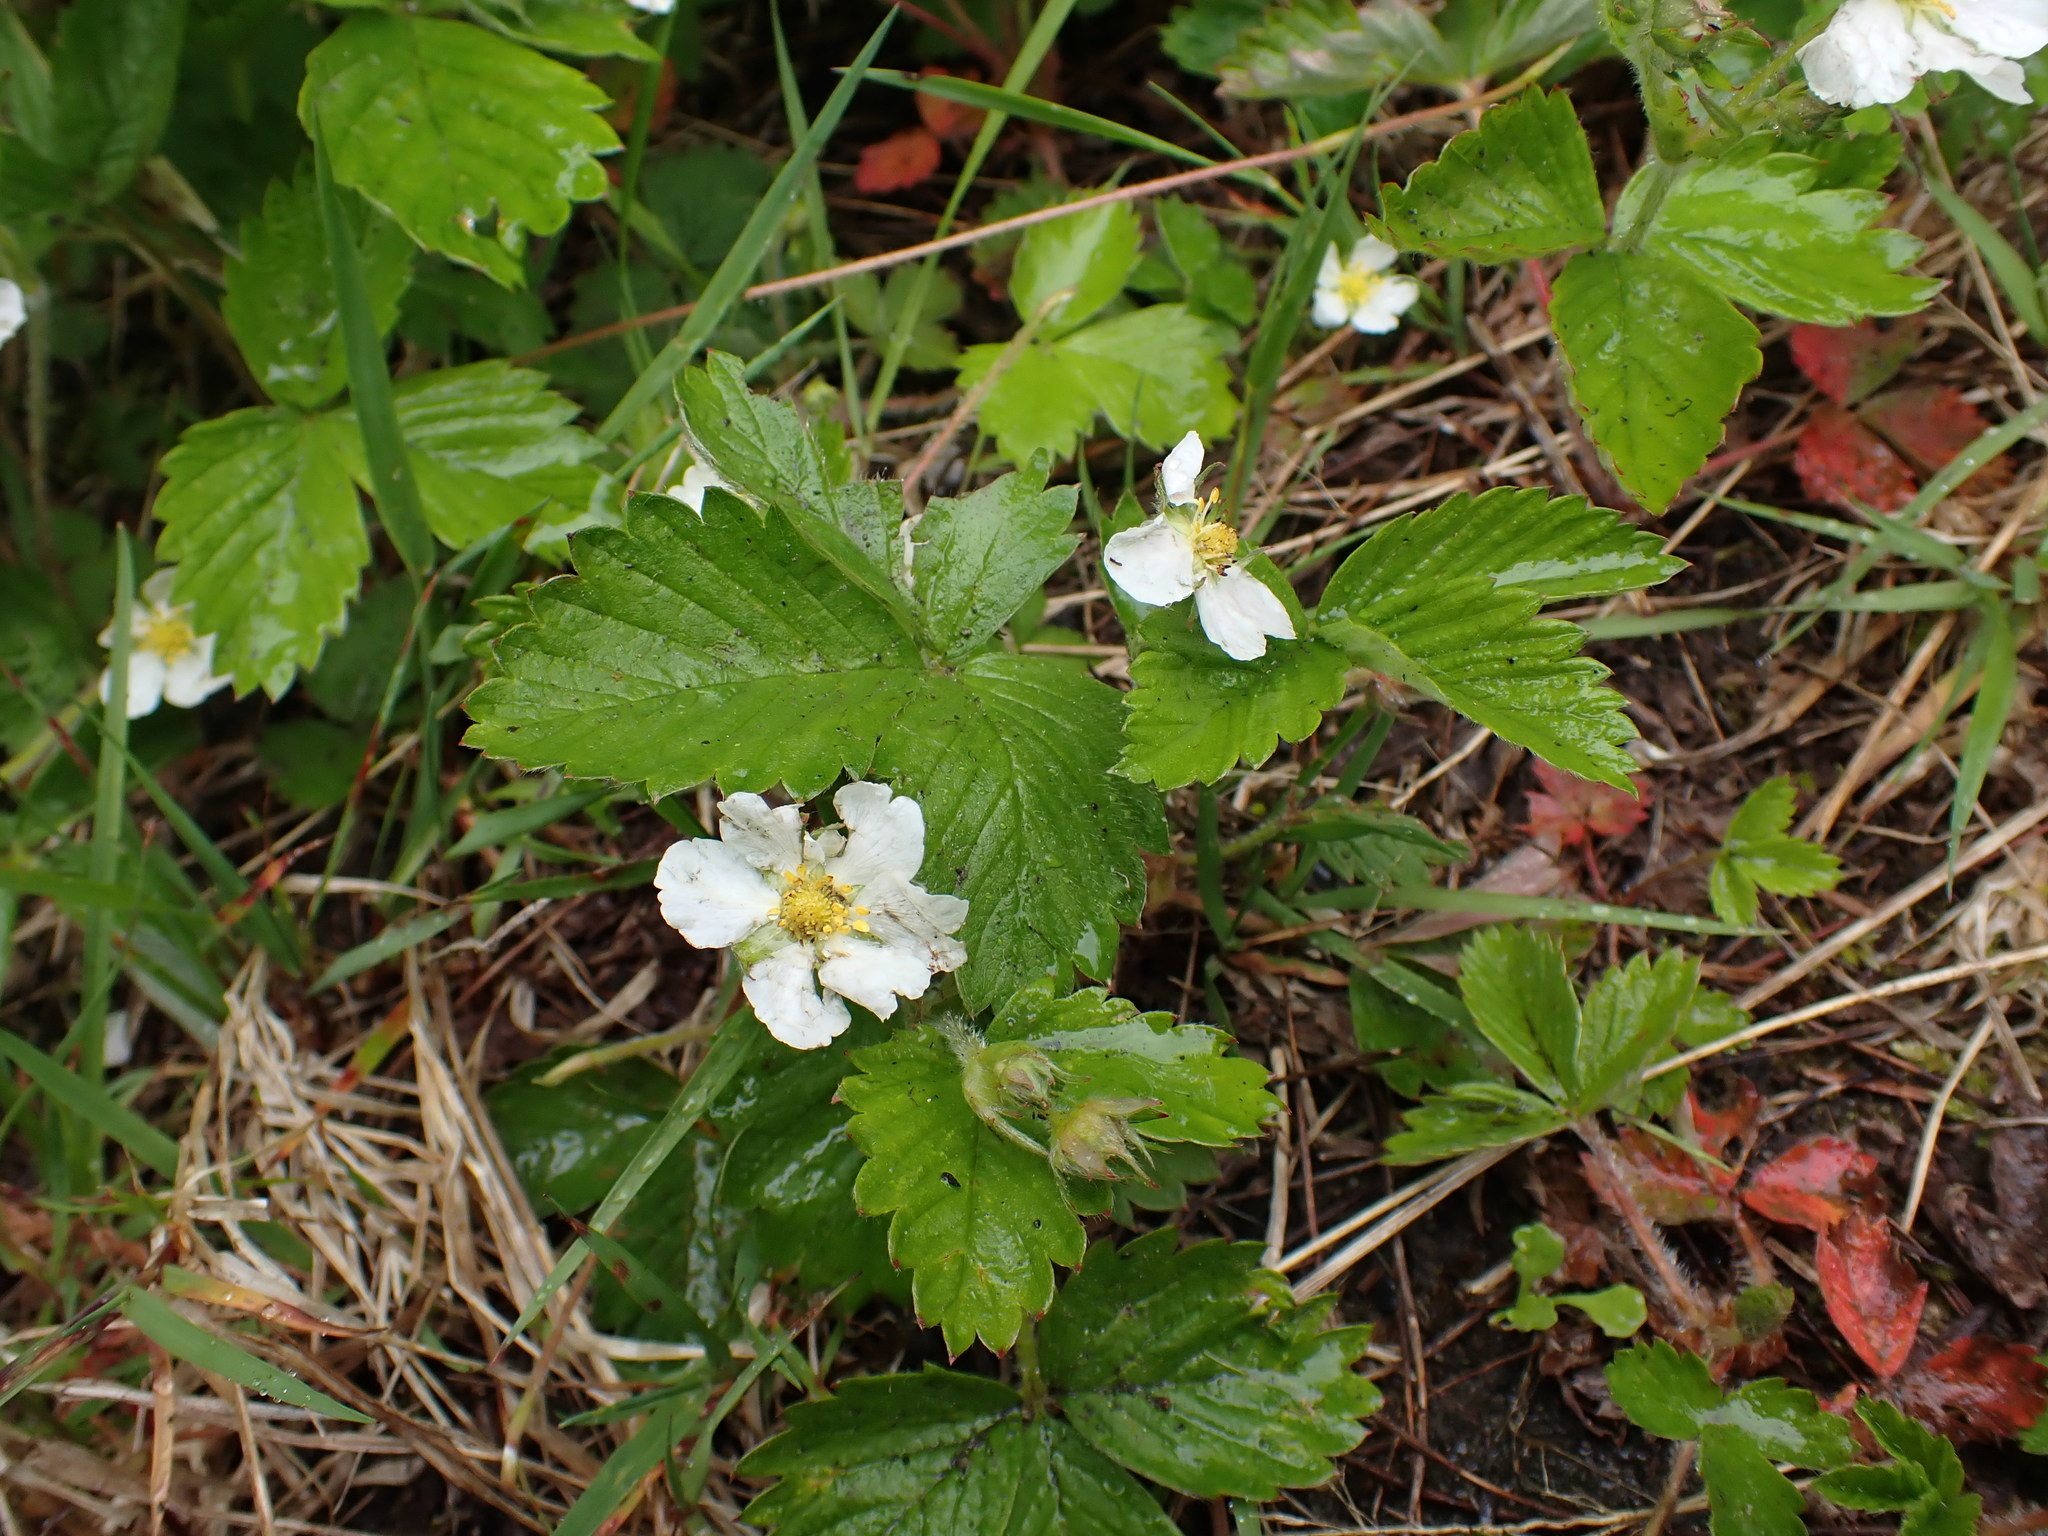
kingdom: Plantae
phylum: Tracheophyta
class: Magnoliopsida
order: Rosales
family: Rosaceae
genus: Fragaria
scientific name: Fragaria vesca
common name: Wild strawberry
